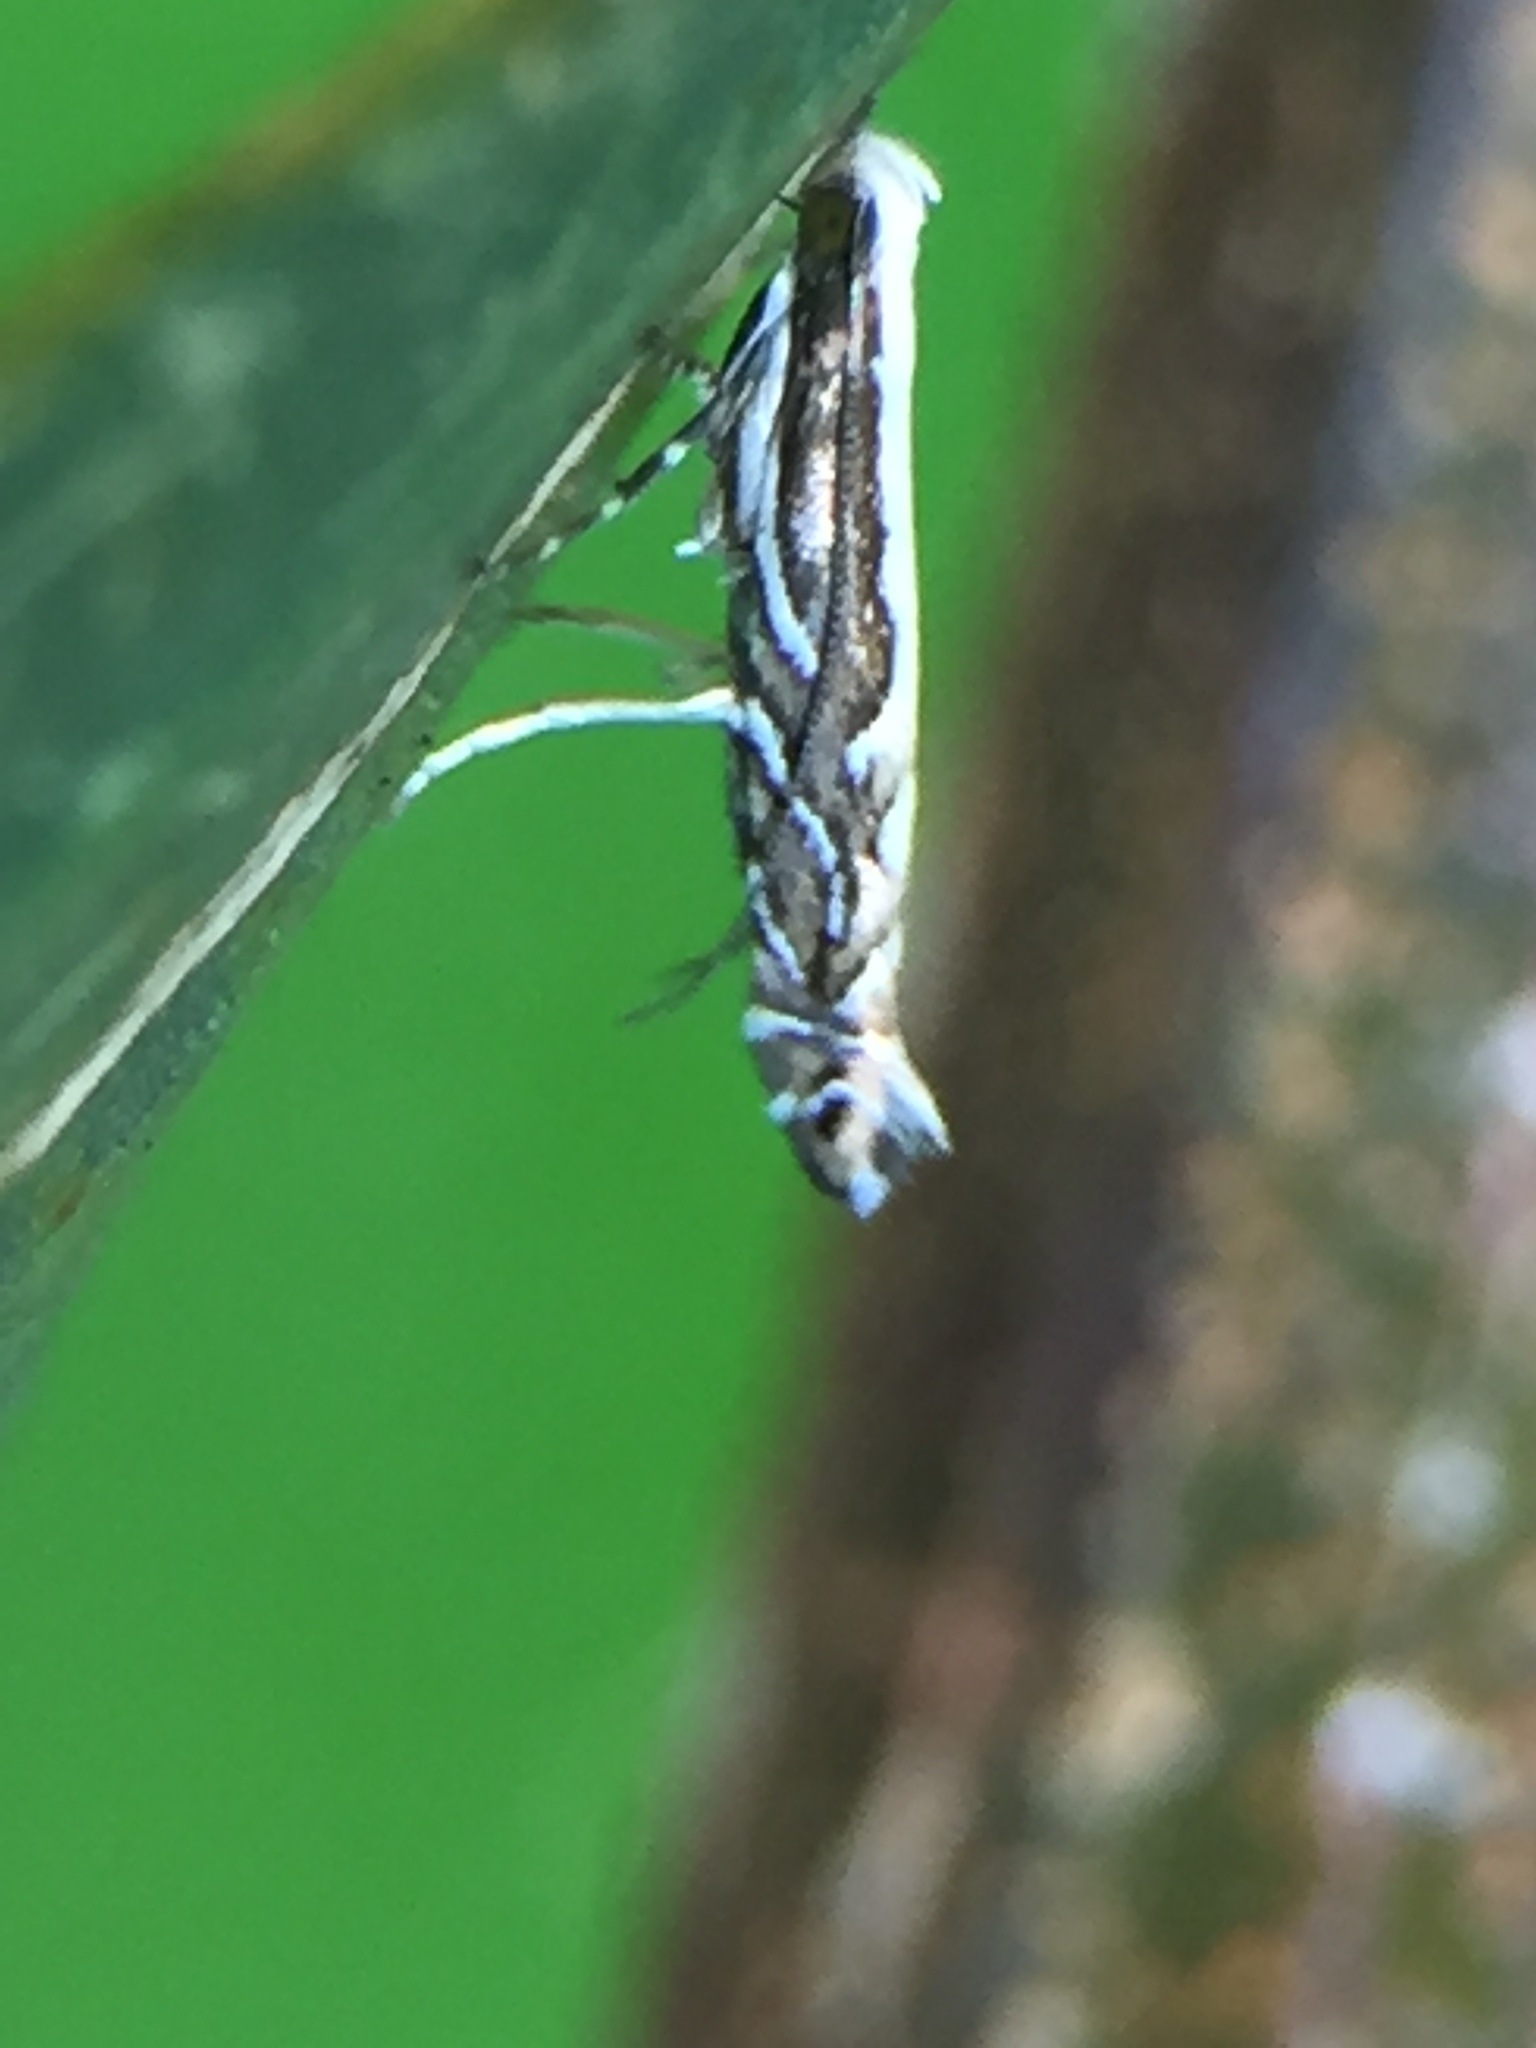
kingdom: Animalia
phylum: Arthropoda
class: Insecta
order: Lepidoptera
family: Gracillariidae
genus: Parectopa
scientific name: Parectopa alysidota
